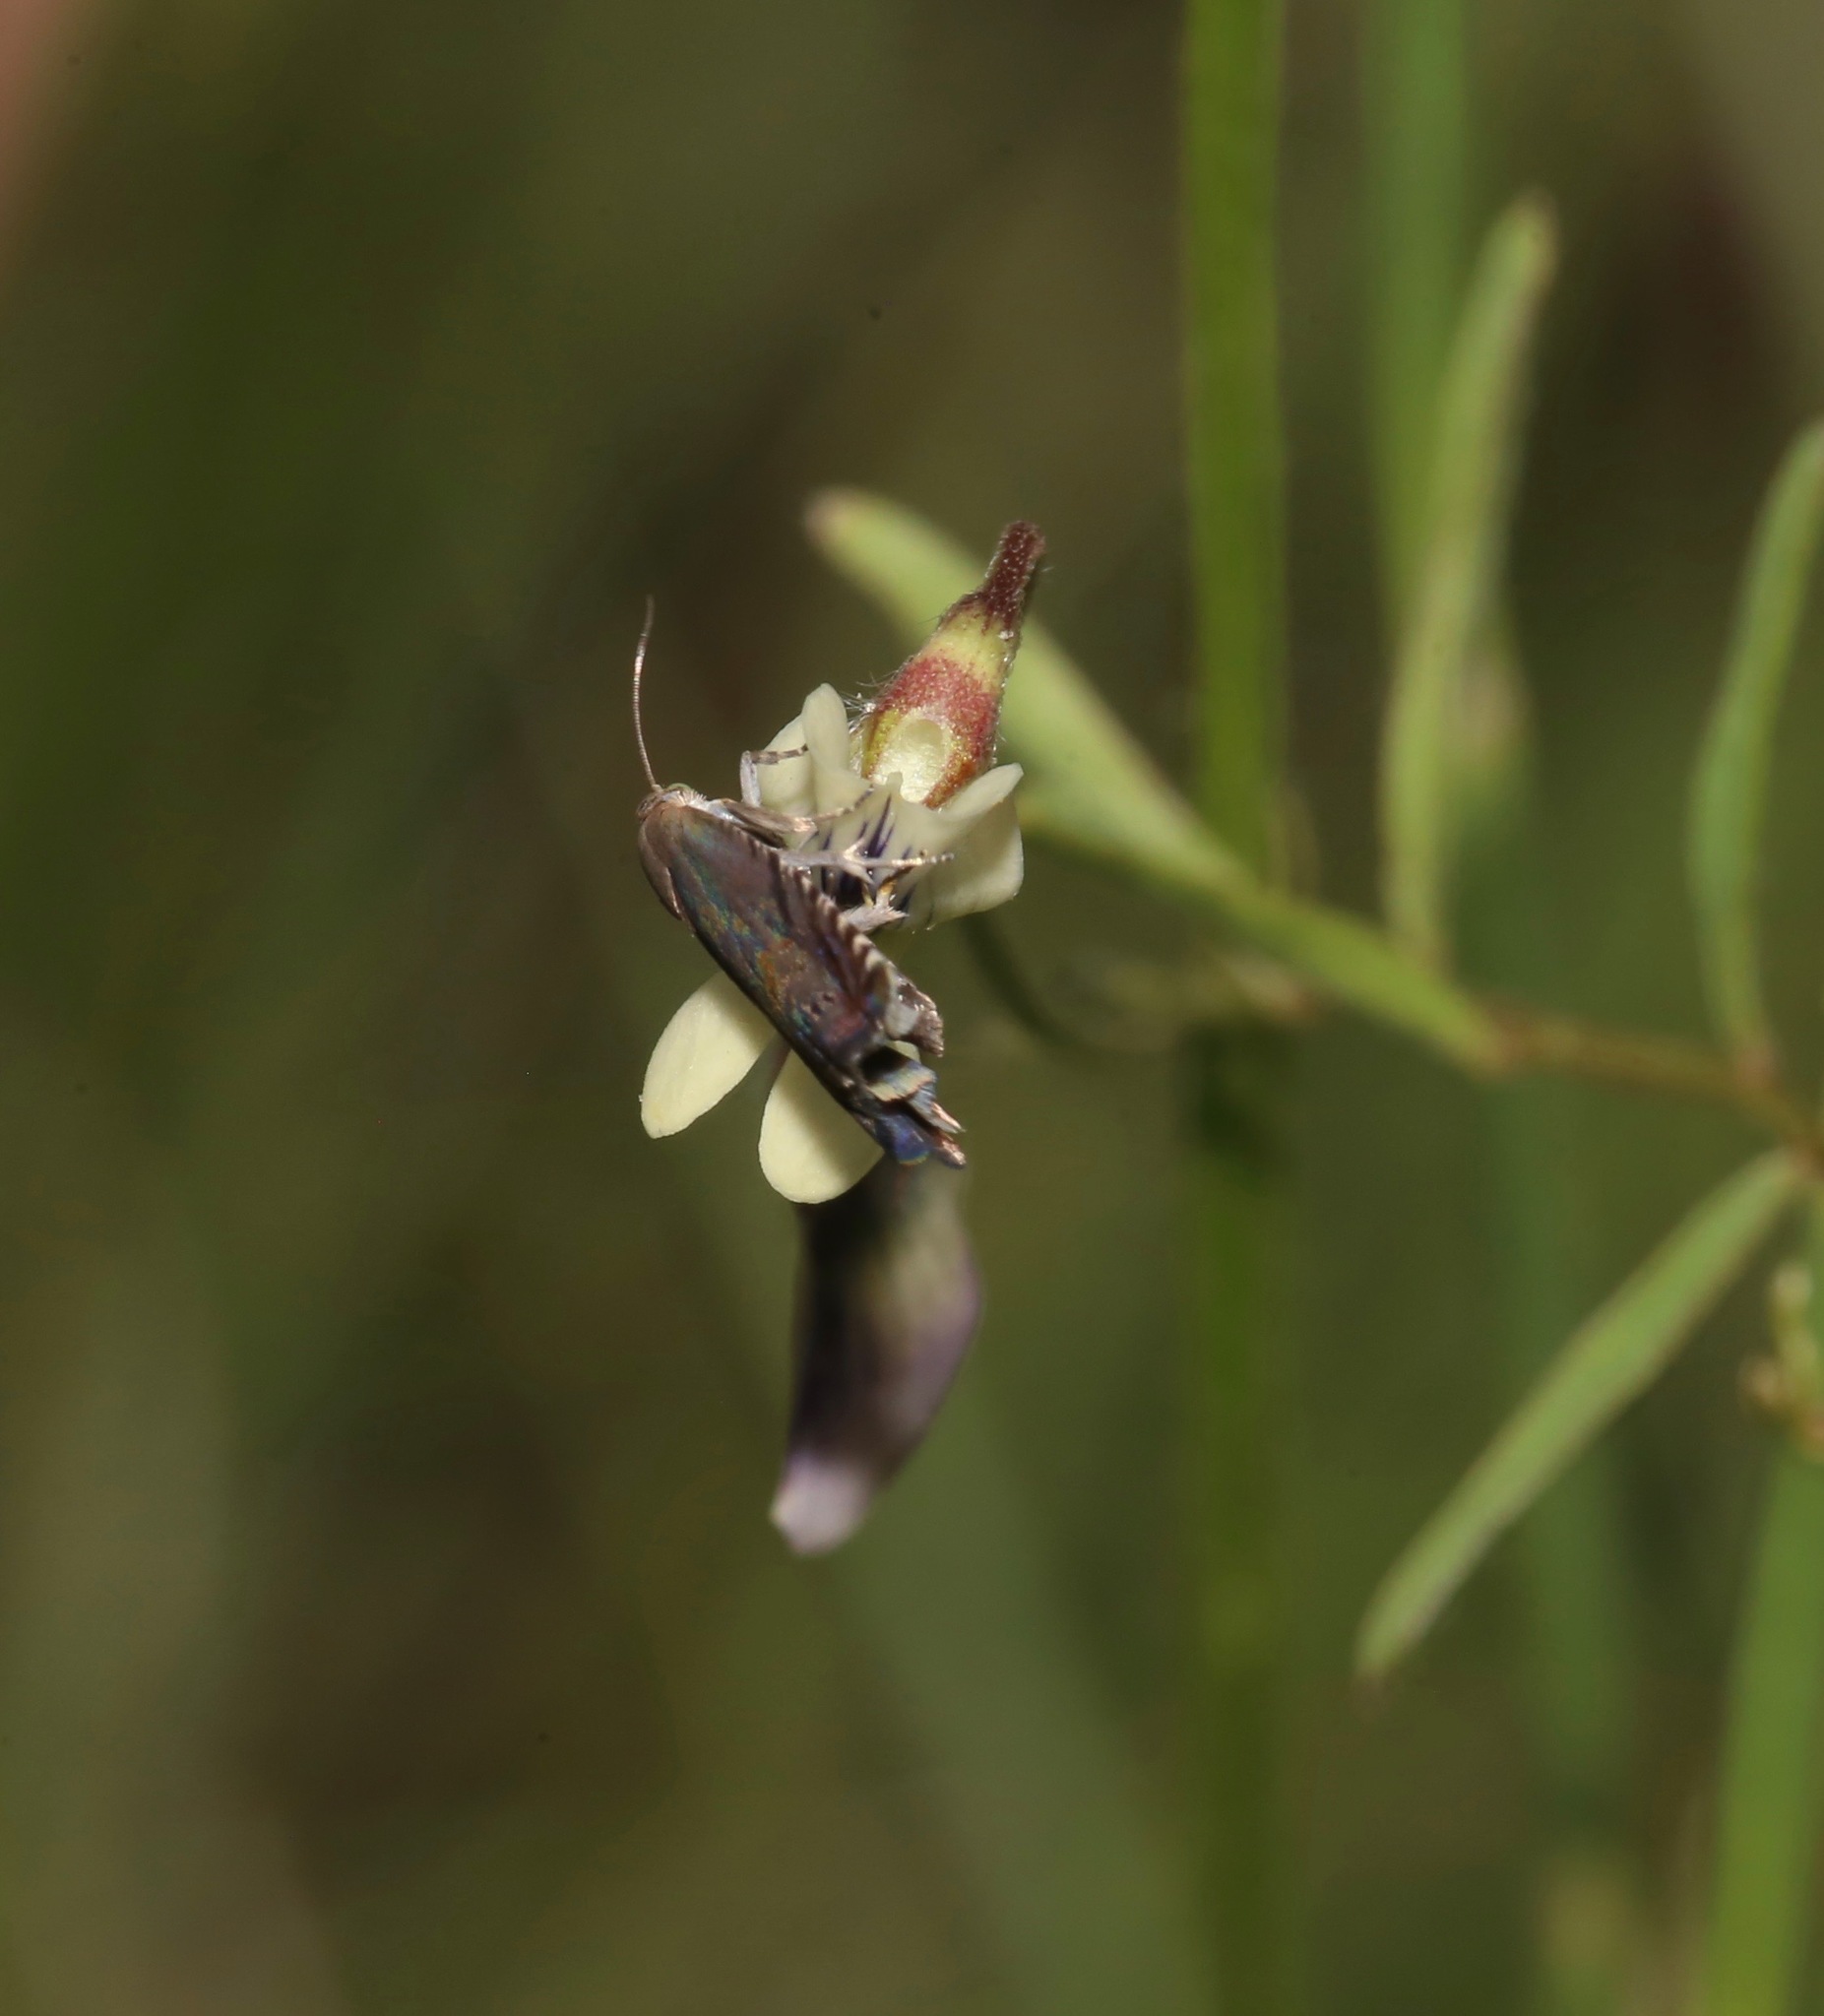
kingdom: Animalia
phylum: Arthropoda
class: Insecta
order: Lepidoptera
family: Tortricidae
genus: Cydia
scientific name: Cydia nigricana
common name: Pea moth
